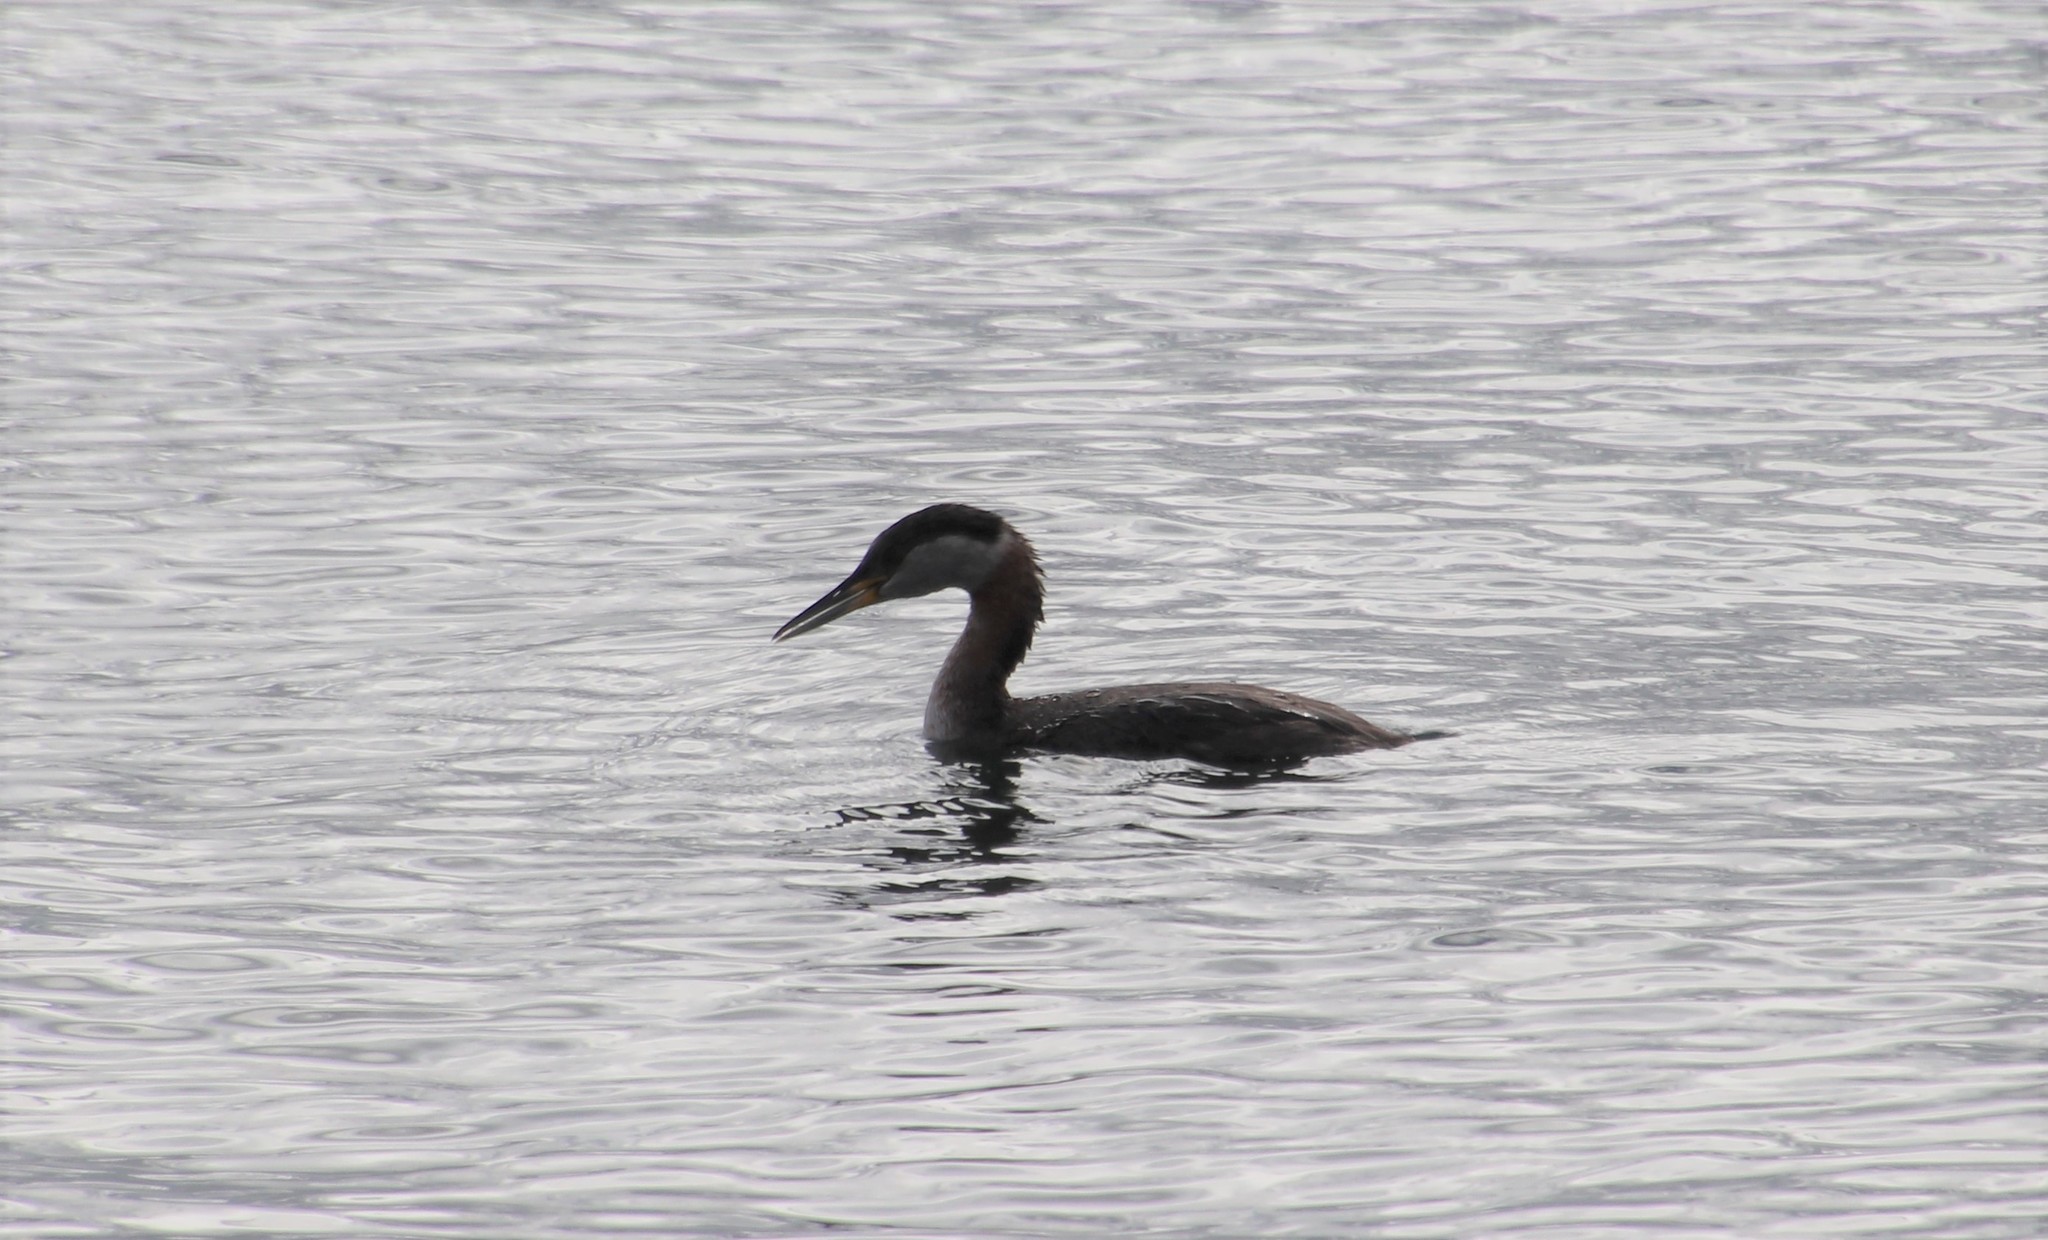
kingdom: Animalia
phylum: Chordata
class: Aves
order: Podicipediformes
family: Podicipedidae
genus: Podiceps
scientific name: Podiceps grisegena
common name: Red-necked grebe
